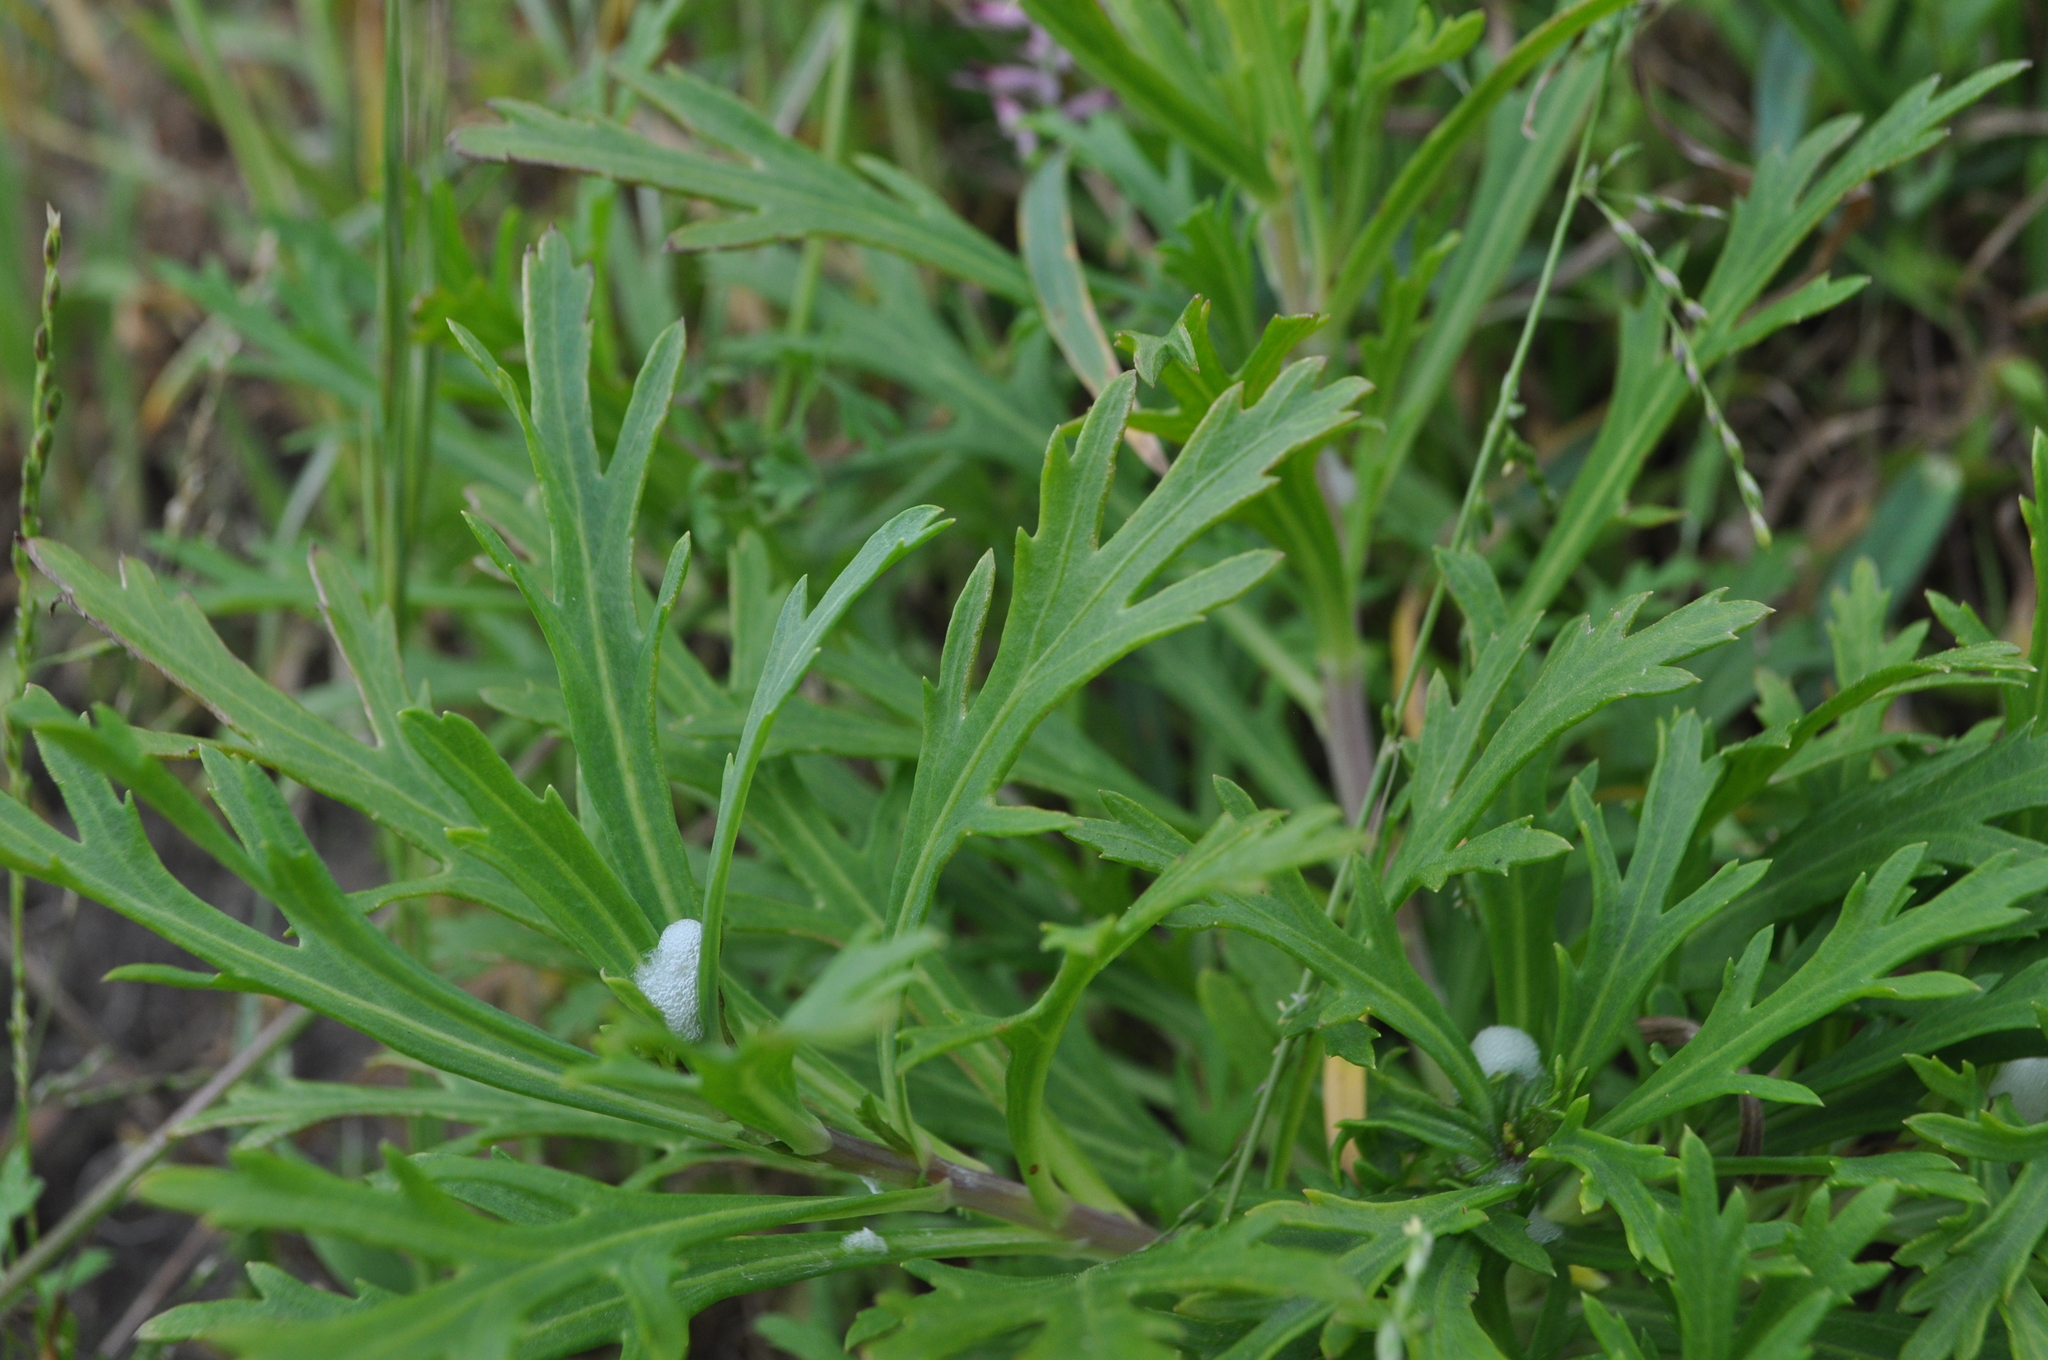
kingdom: Plantae
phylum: Tracheophyta
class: Magnoliopsida
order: Asterales
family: Asteraceae
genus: Argyranthemum
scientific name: Argyranthemum frutescens
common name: Paris daisy
